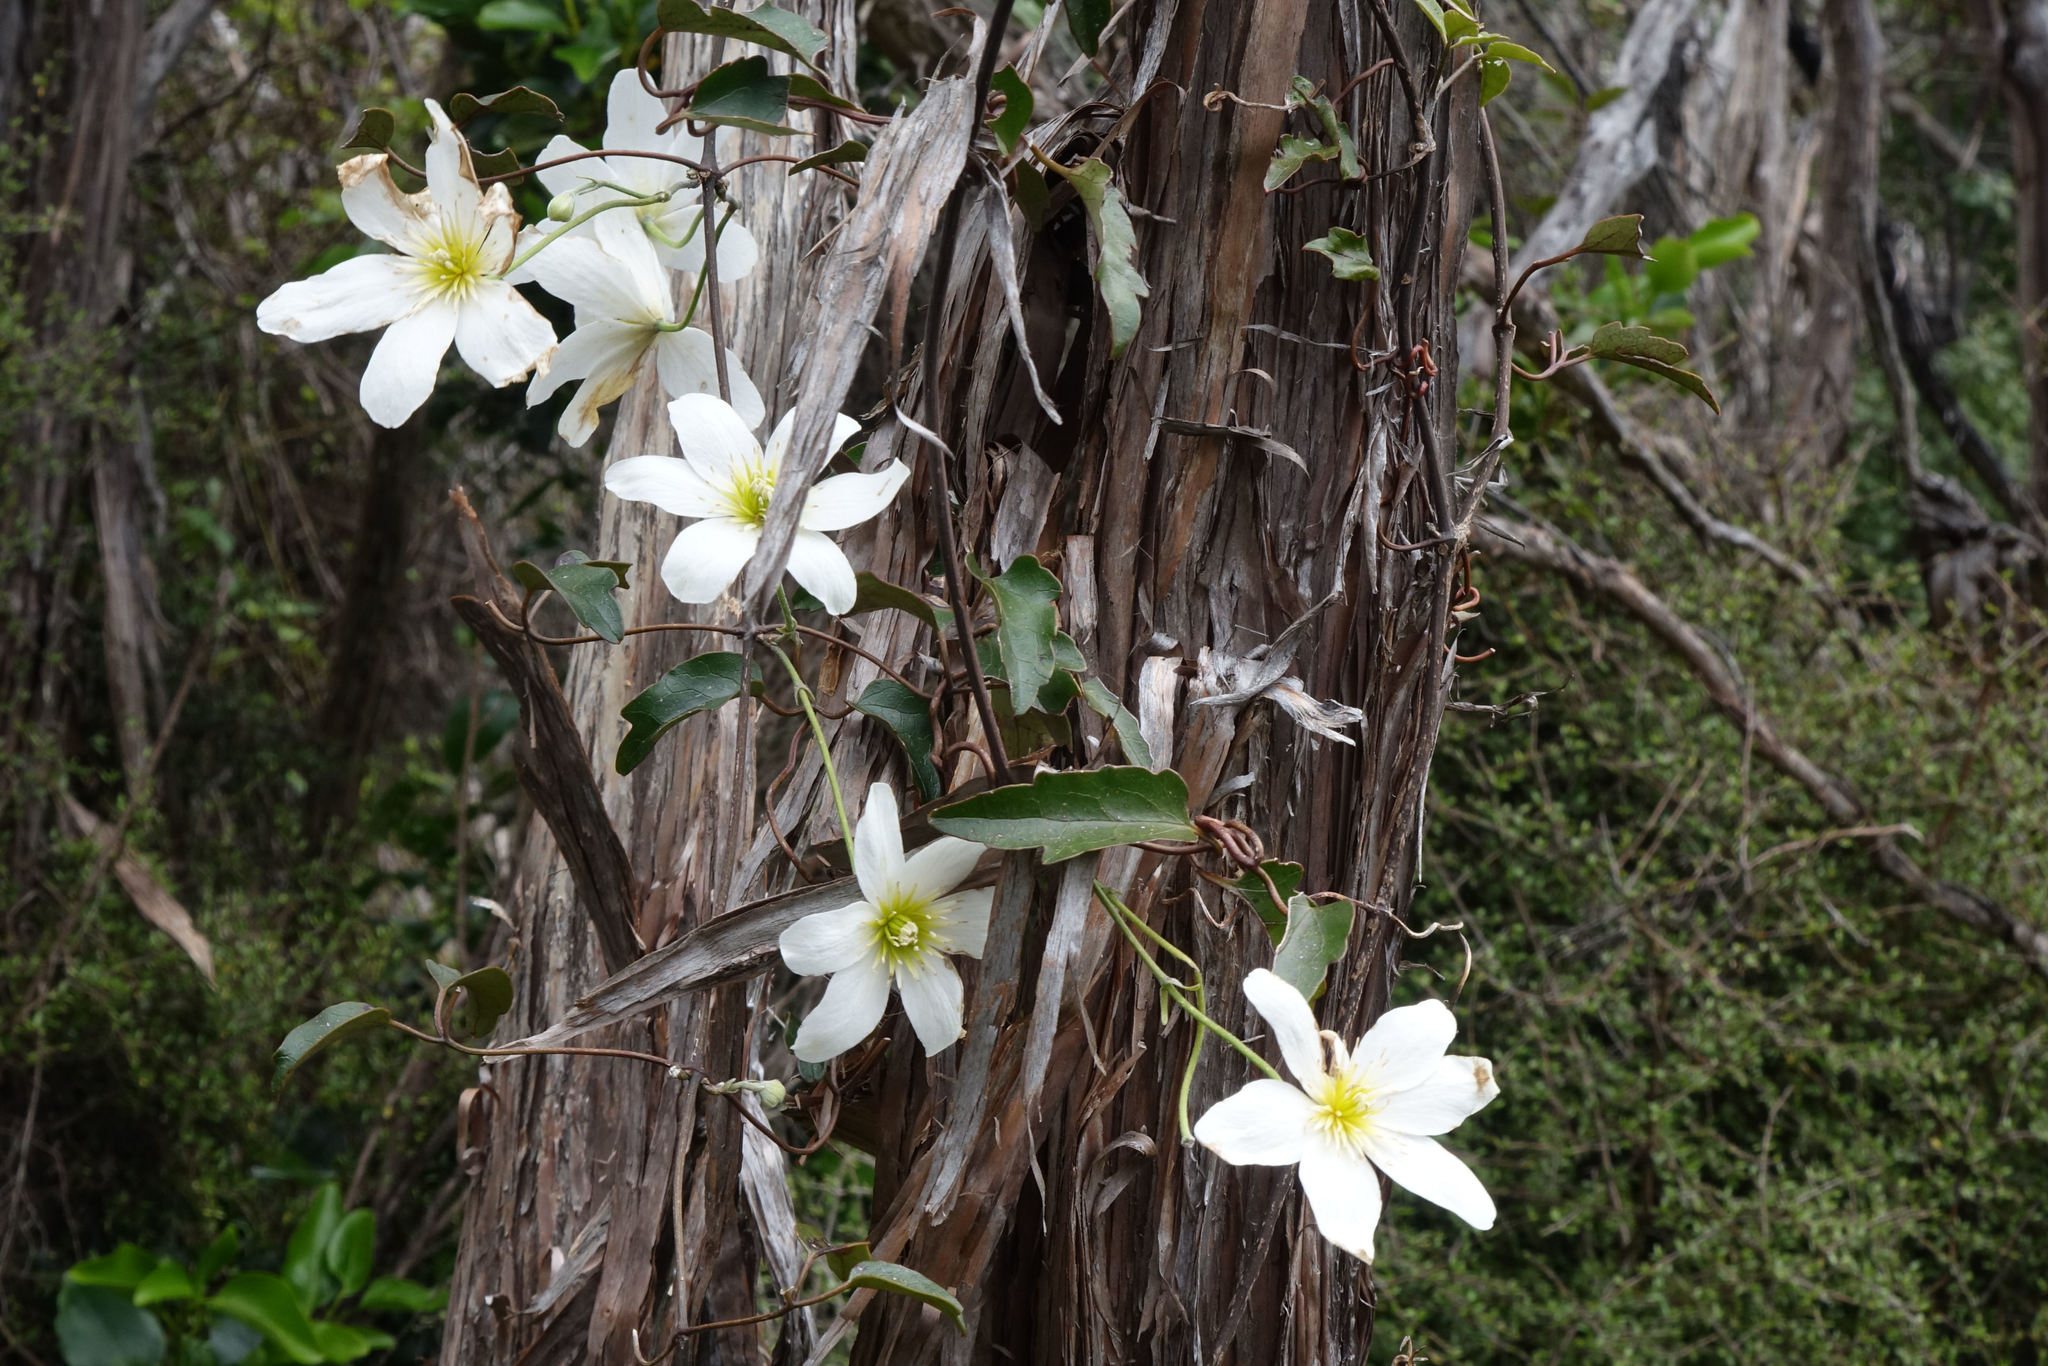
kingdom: Plantae
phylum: Tracheophyta
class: Magnoliopsida
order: Ranunculales
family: Ranunculaceae
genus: Clematis
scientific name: Clematis paniculata
